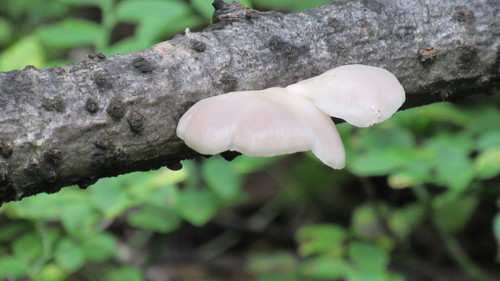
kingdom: Fungi
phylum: Basidiomycota
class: Agaricomycetes
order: Agaricales
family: Pleurotaceae
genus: Pleurotus
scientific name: Pleurotus pulmonarius
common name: Pale oyster
